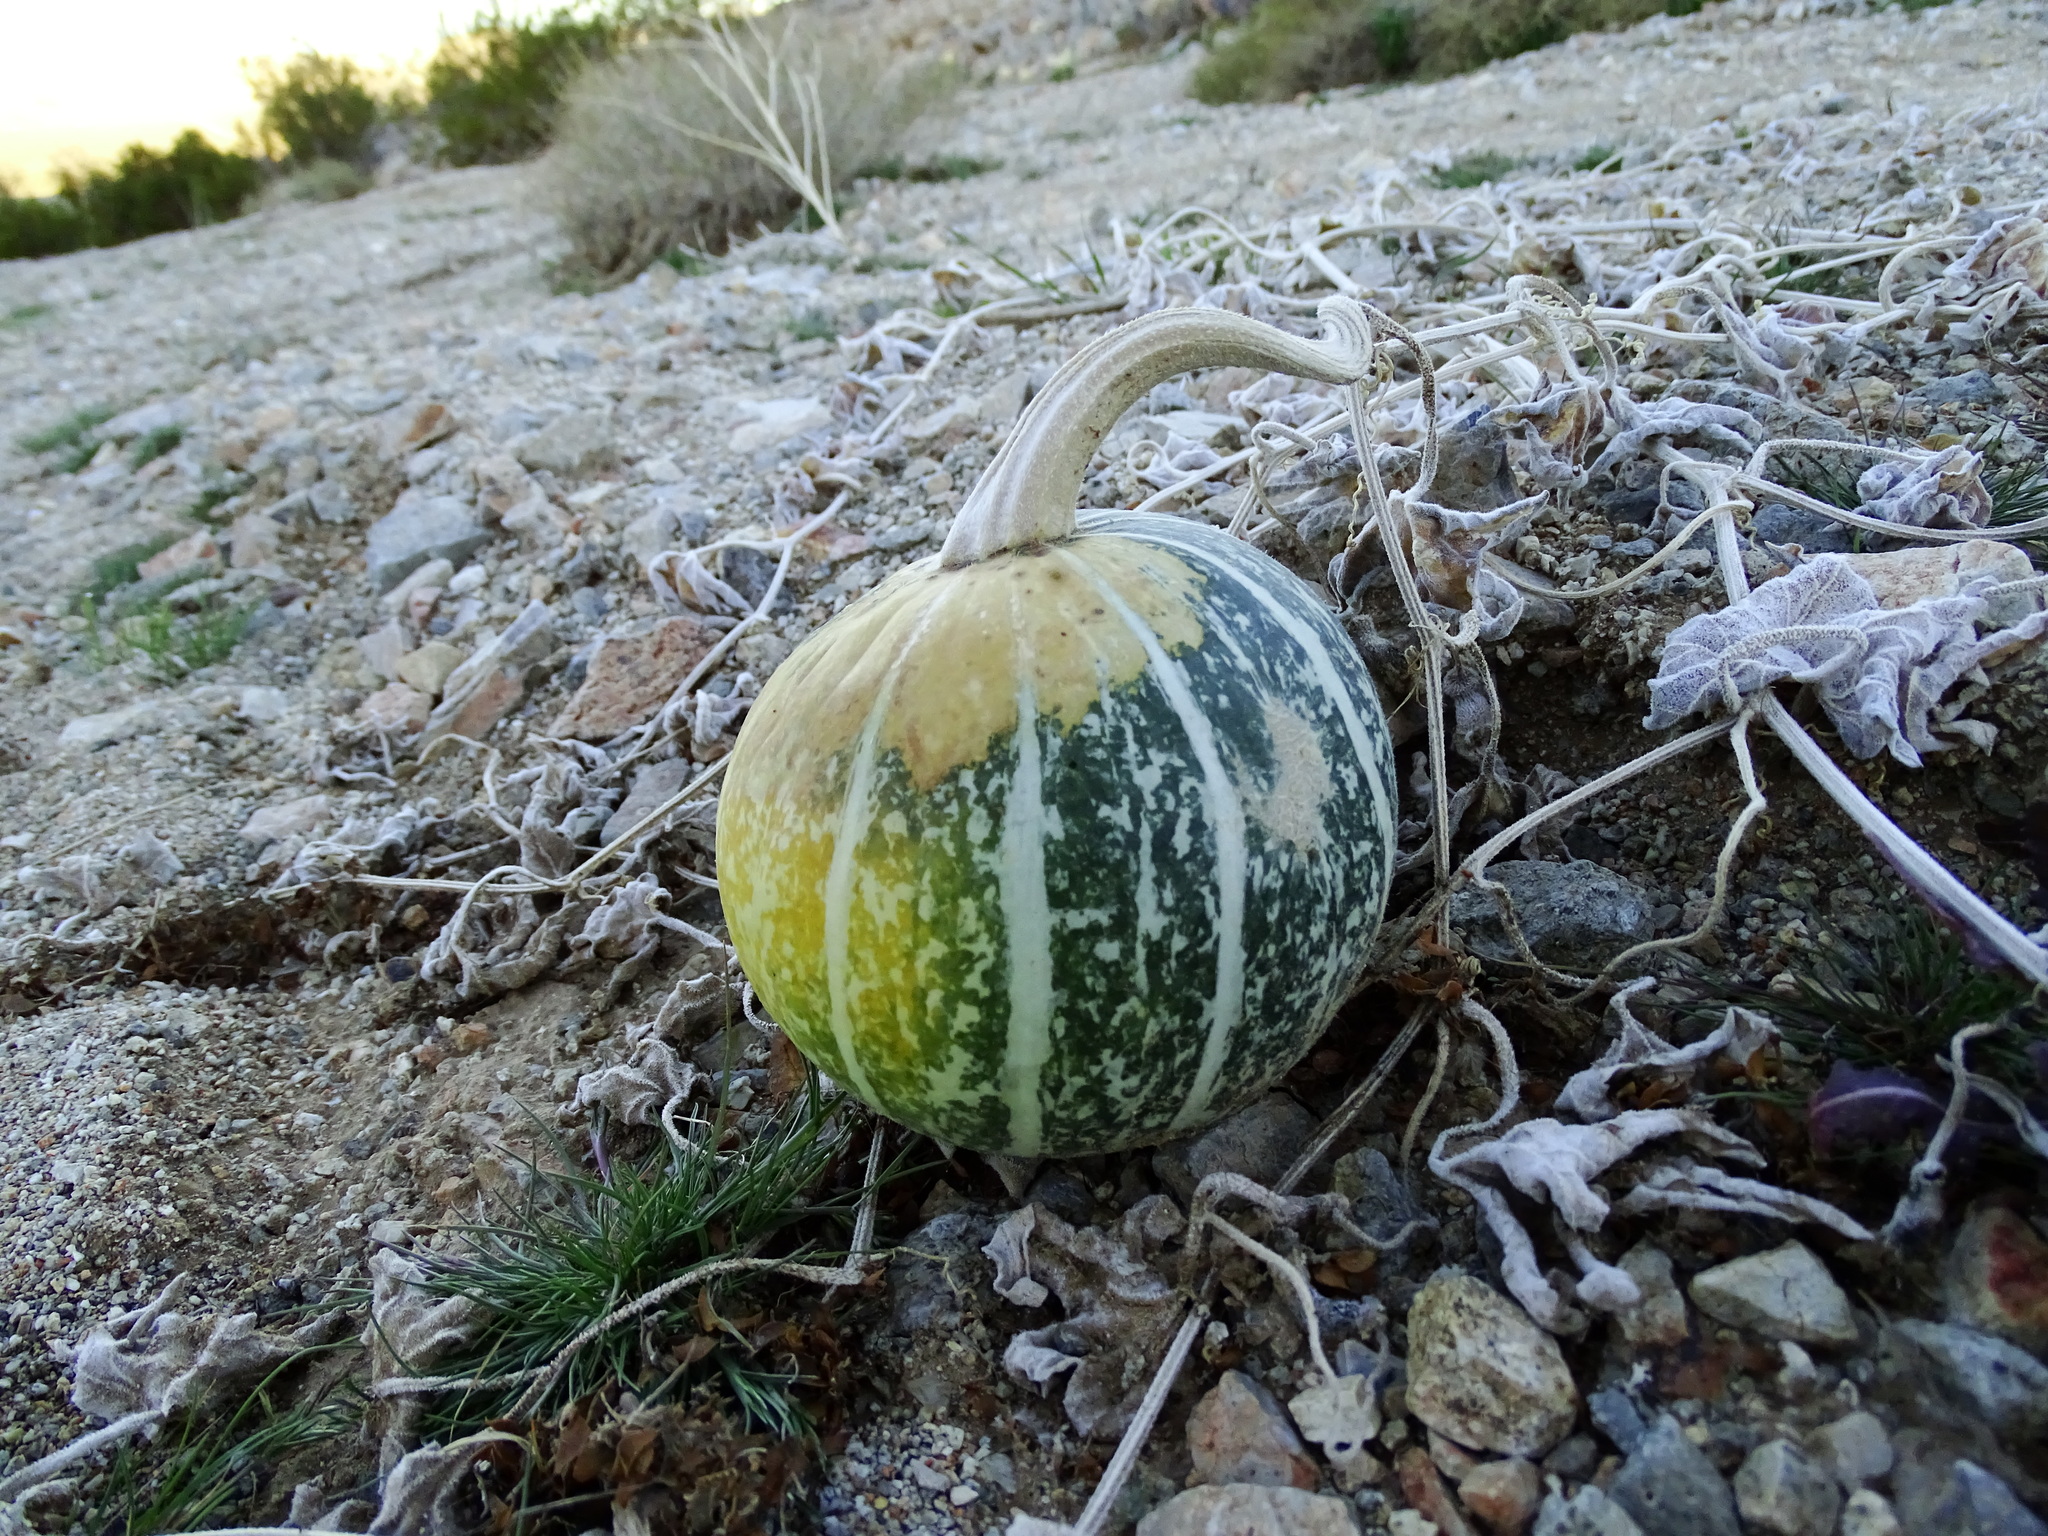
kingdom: Plantae
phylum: Tracheophyta
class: Magnoliopsida
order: Cucurbitales
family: Cucurbitaceae
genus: Cucurbita
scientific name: Cucurbita palmata
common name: Coyote-melon
